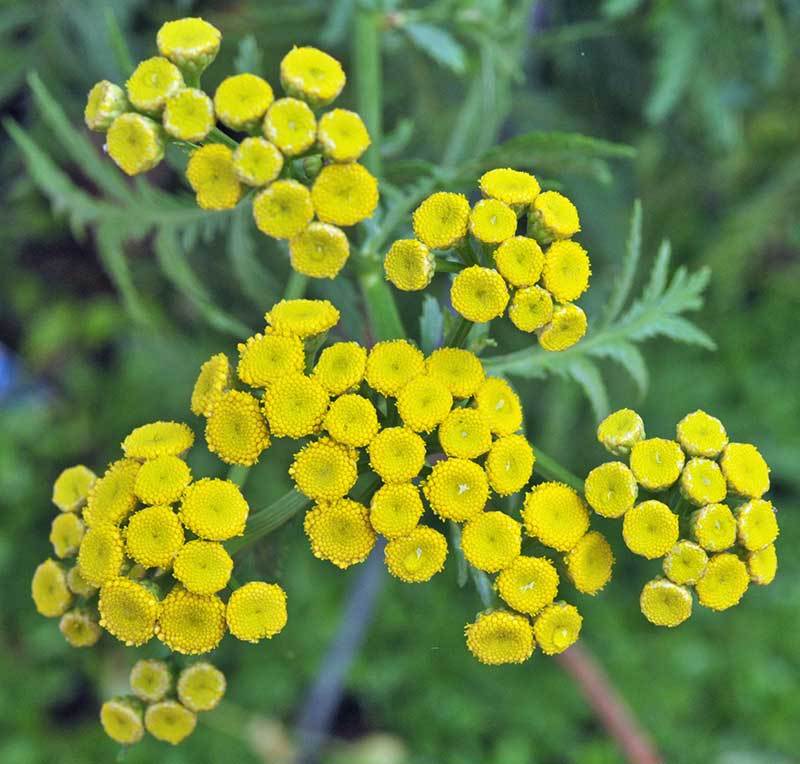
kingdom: Plantae
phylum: Tracheophyta
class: Magnoliopsida
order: Asterales
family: Asteraceae
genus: Tanacetum
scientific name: Tanacetum vulgare
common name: Common tansy
